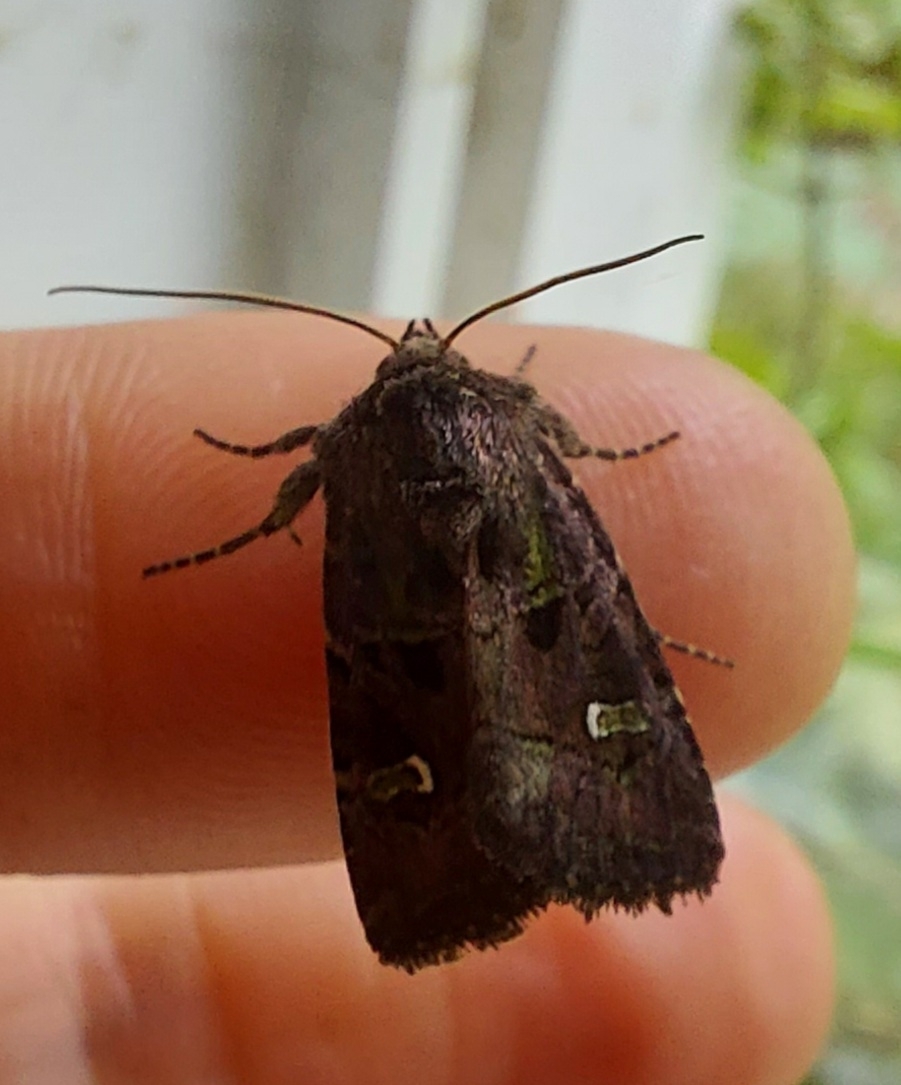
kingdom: Animalia
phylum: Arthropoda
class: Insecta
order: Lepidoptera
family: Noctuidae
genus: Lacinipolia
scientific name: Lacinipolia renigera
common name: Kidney-spotted minor
